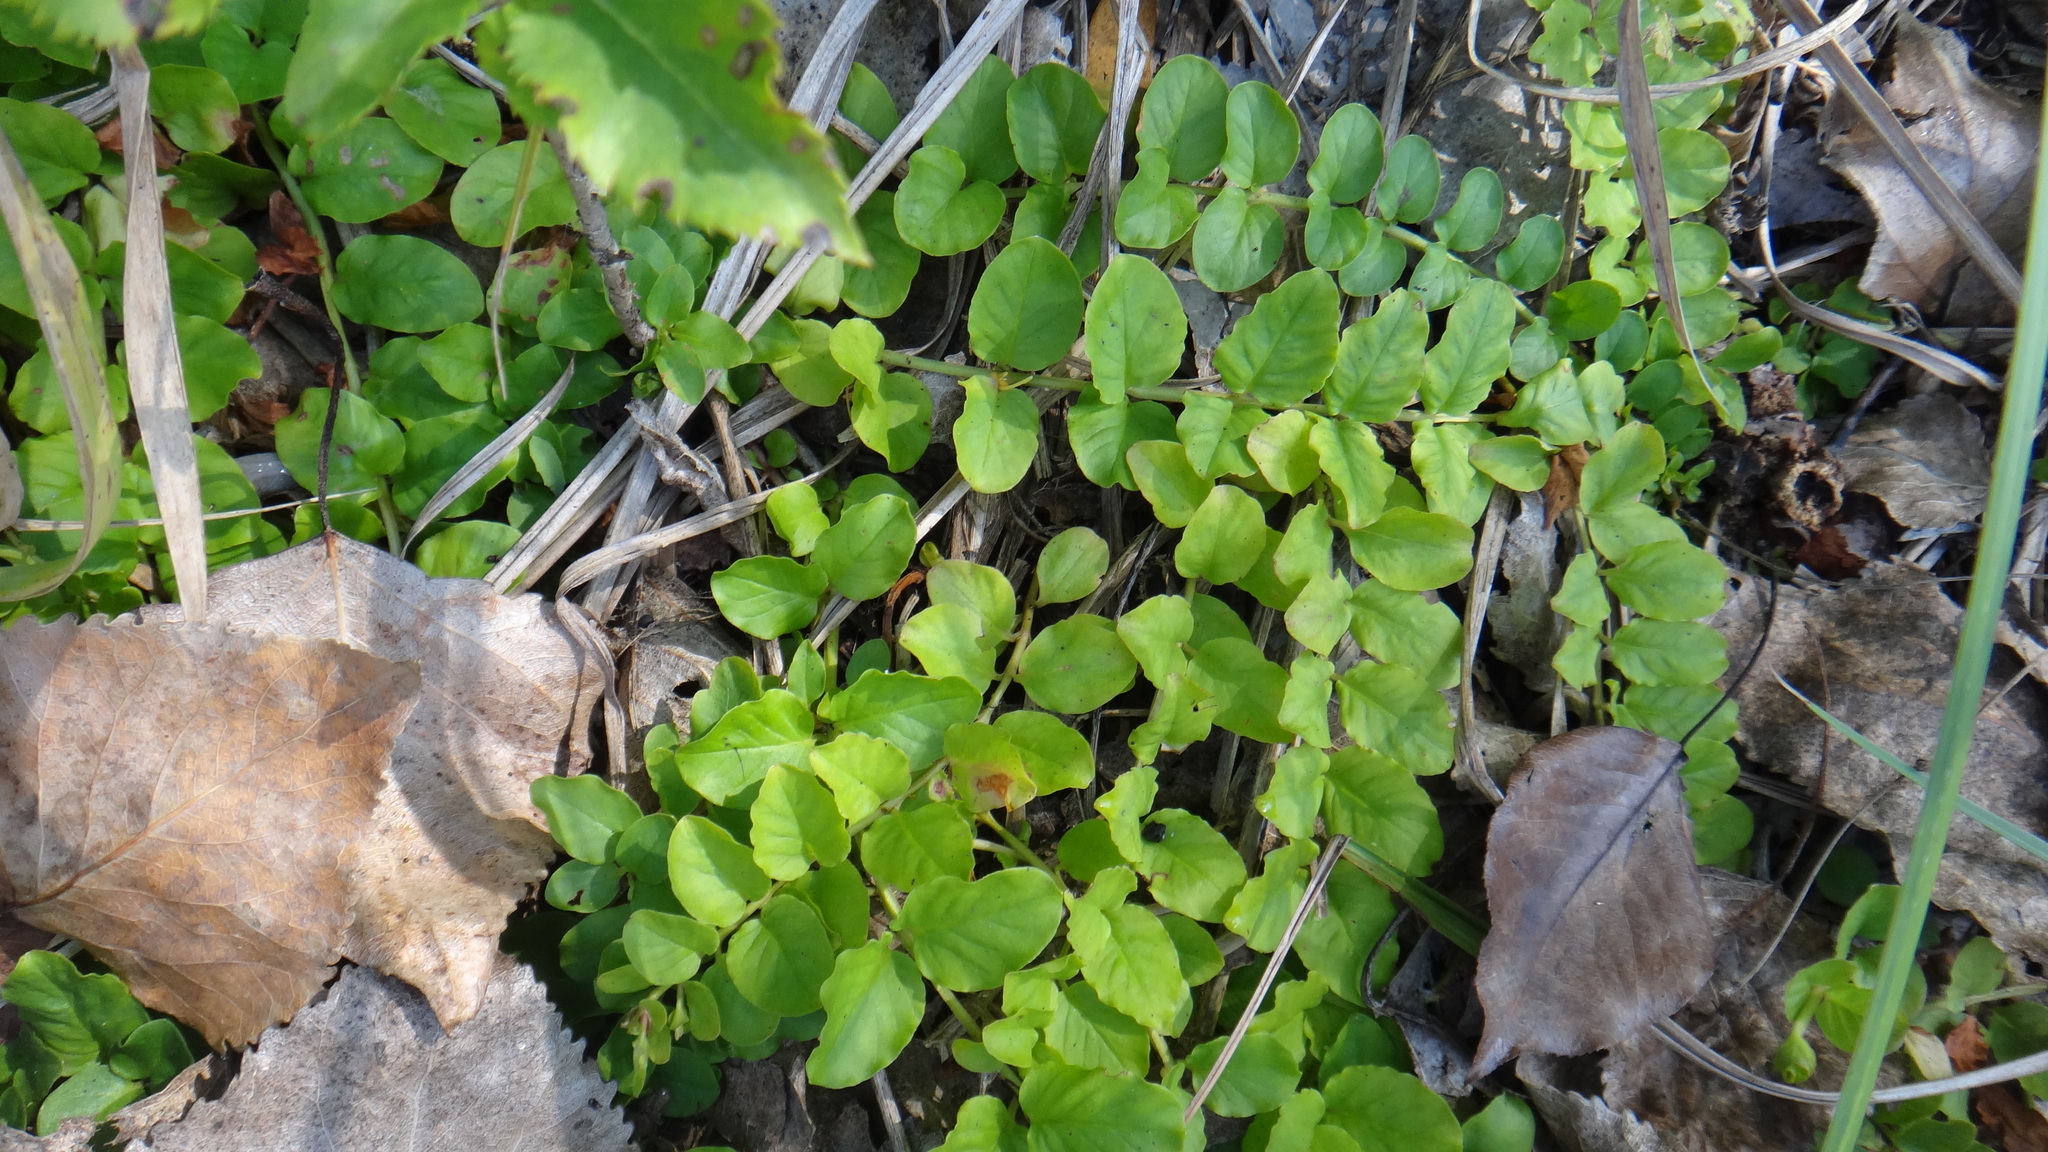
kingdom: Plantae
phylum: Tracheophyta
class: Magnoliopsida
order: Ericales
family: Primulaceae
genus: Lysimachia
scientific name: Lysimachia nummularia
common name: Moneywort
